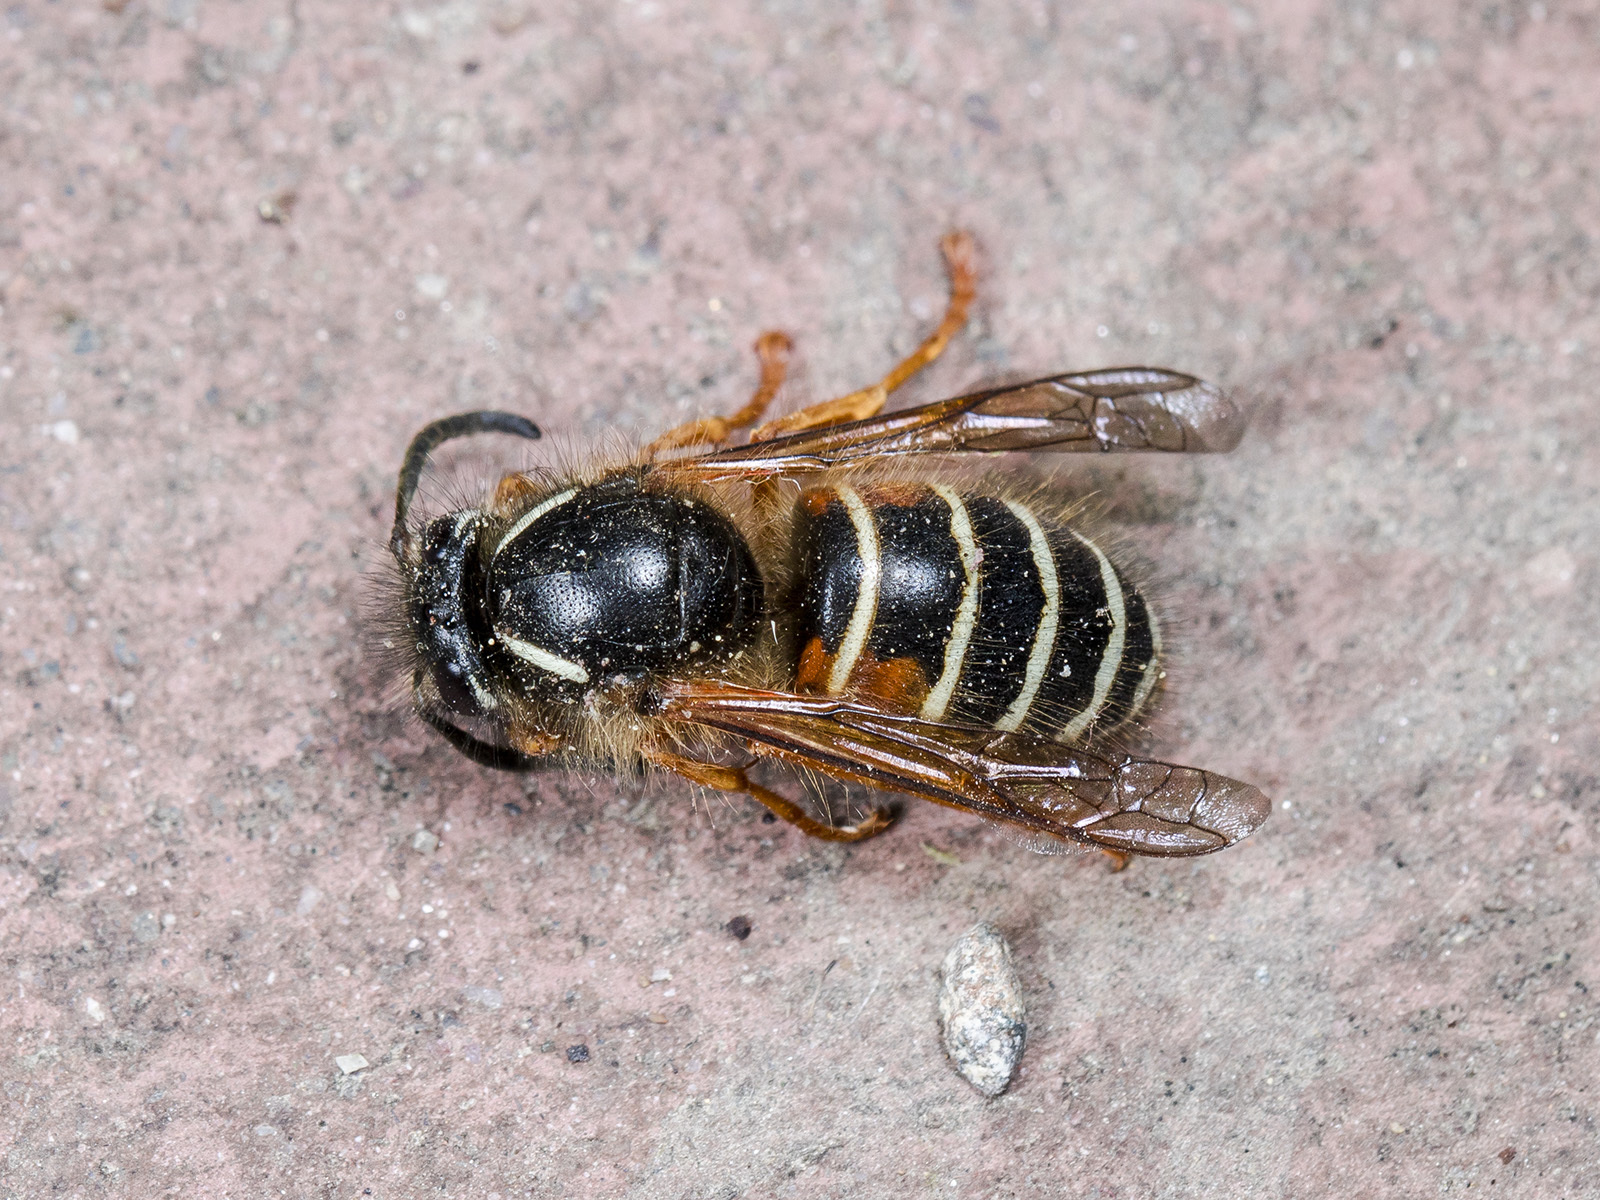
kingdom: Animalia
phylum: Arthropoda
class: Insecta
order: Hymenoptera
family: Vespidae
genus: Dolichovespula
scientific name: Dolichovespula norwegica
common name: Norwegian wasp
